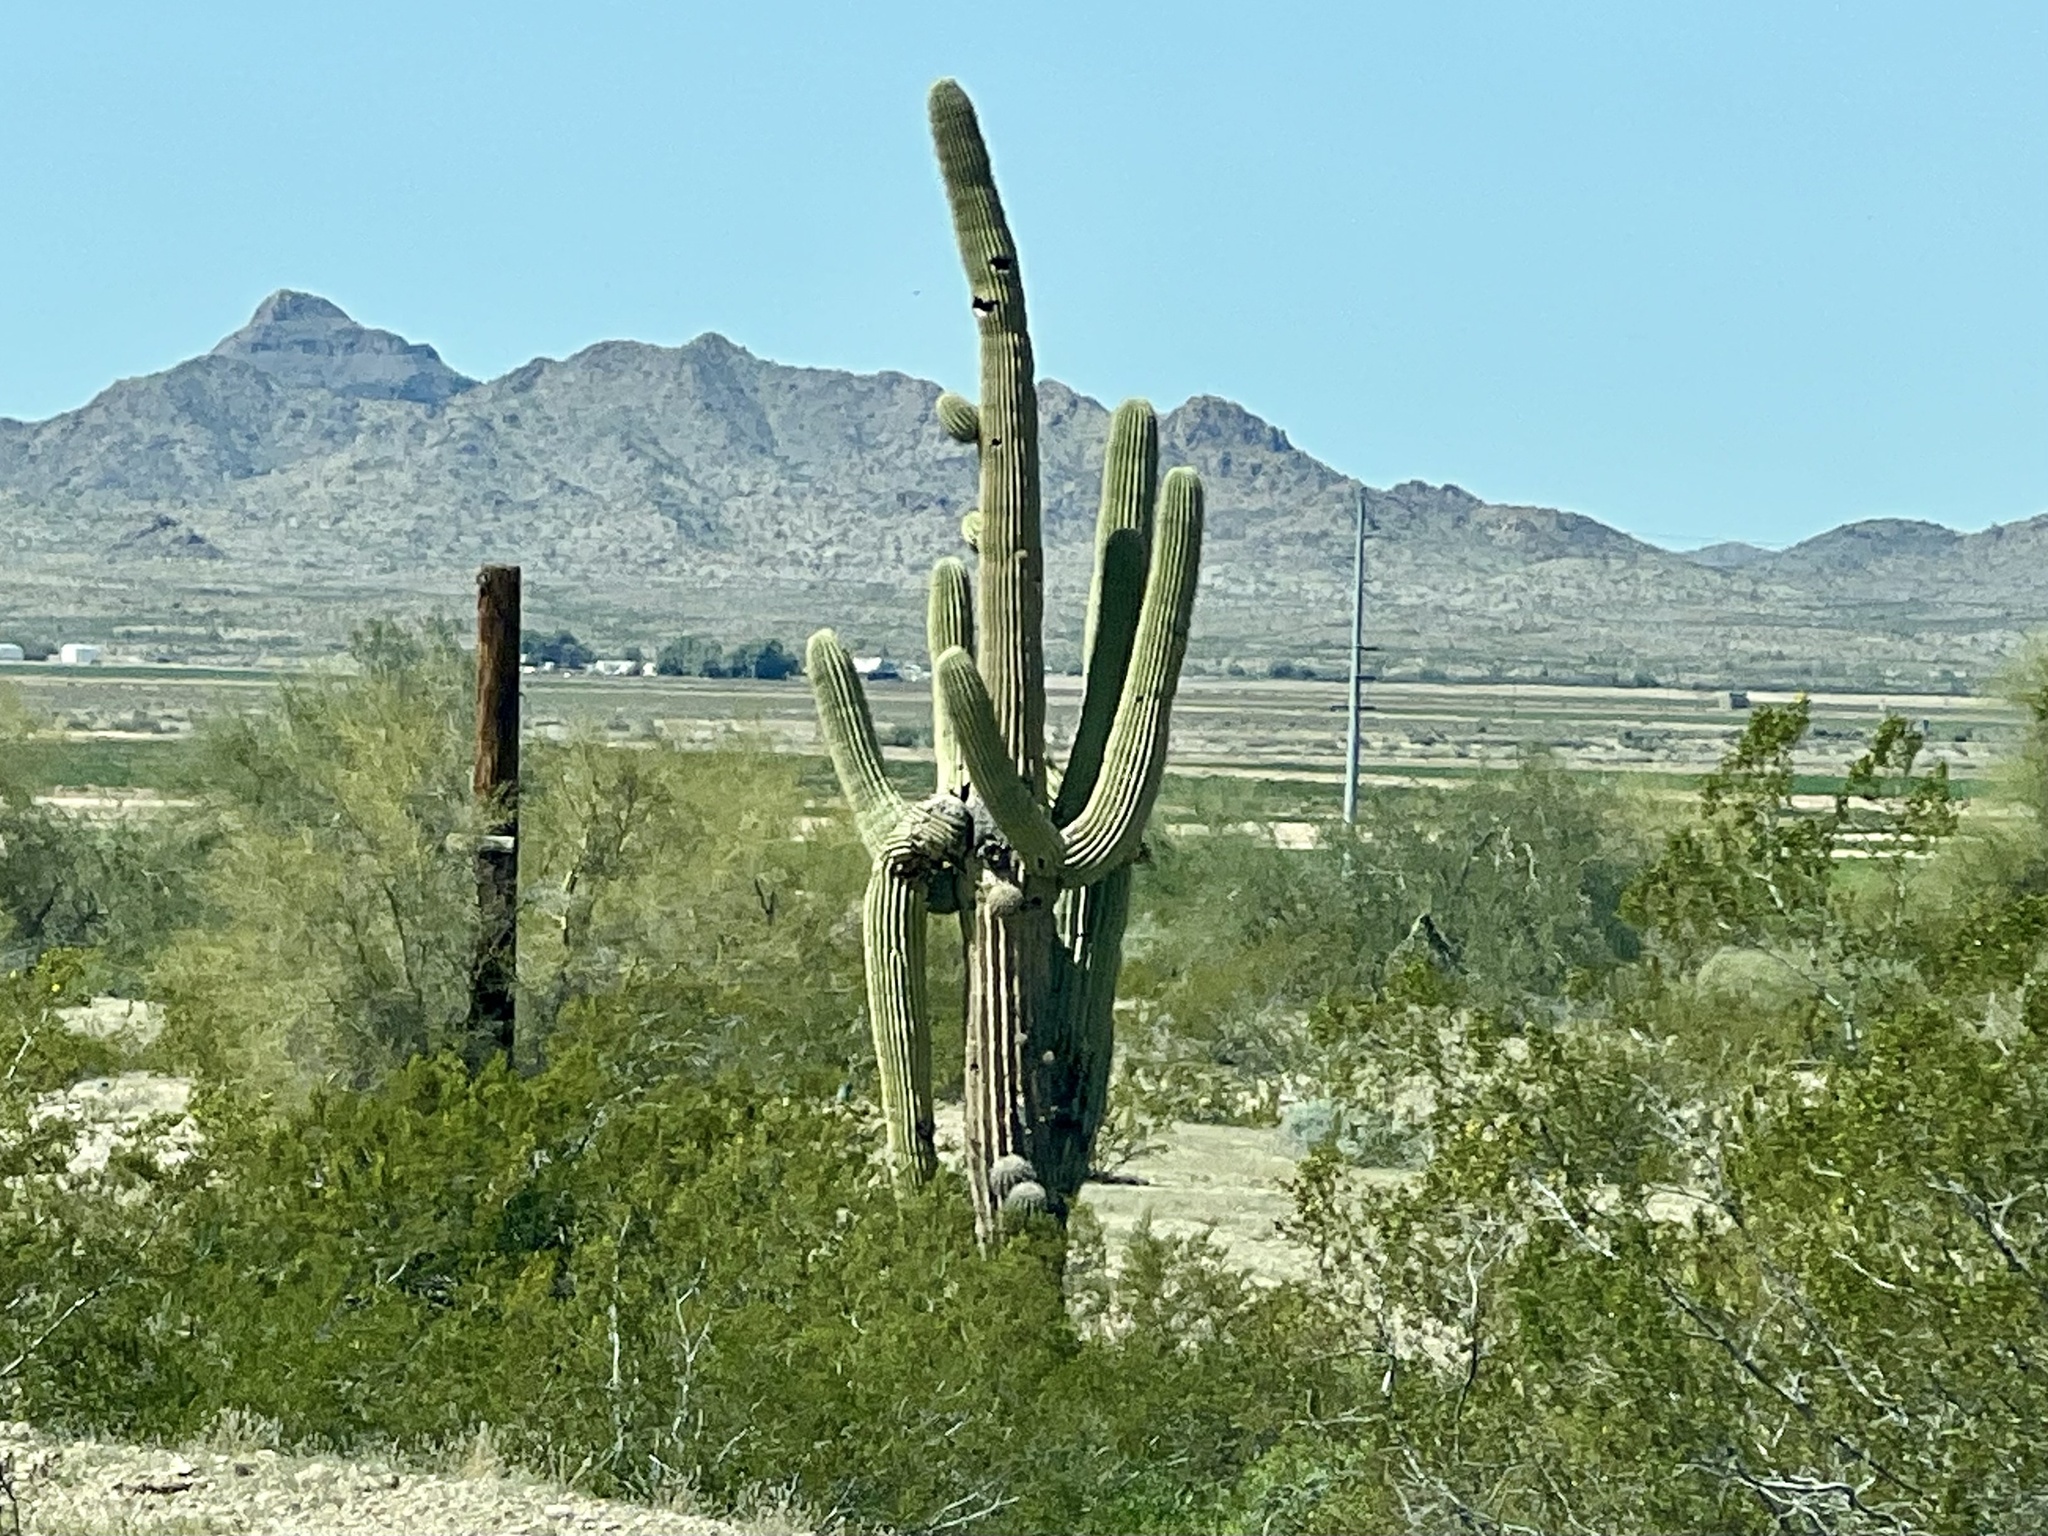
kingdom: Plantae
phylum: Tracheophyta
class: Magnoliopsida
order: Caryophyllales
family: Cactaceae
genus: Carnegiea
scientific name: Carnegiea gigantea
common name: Saguaro
